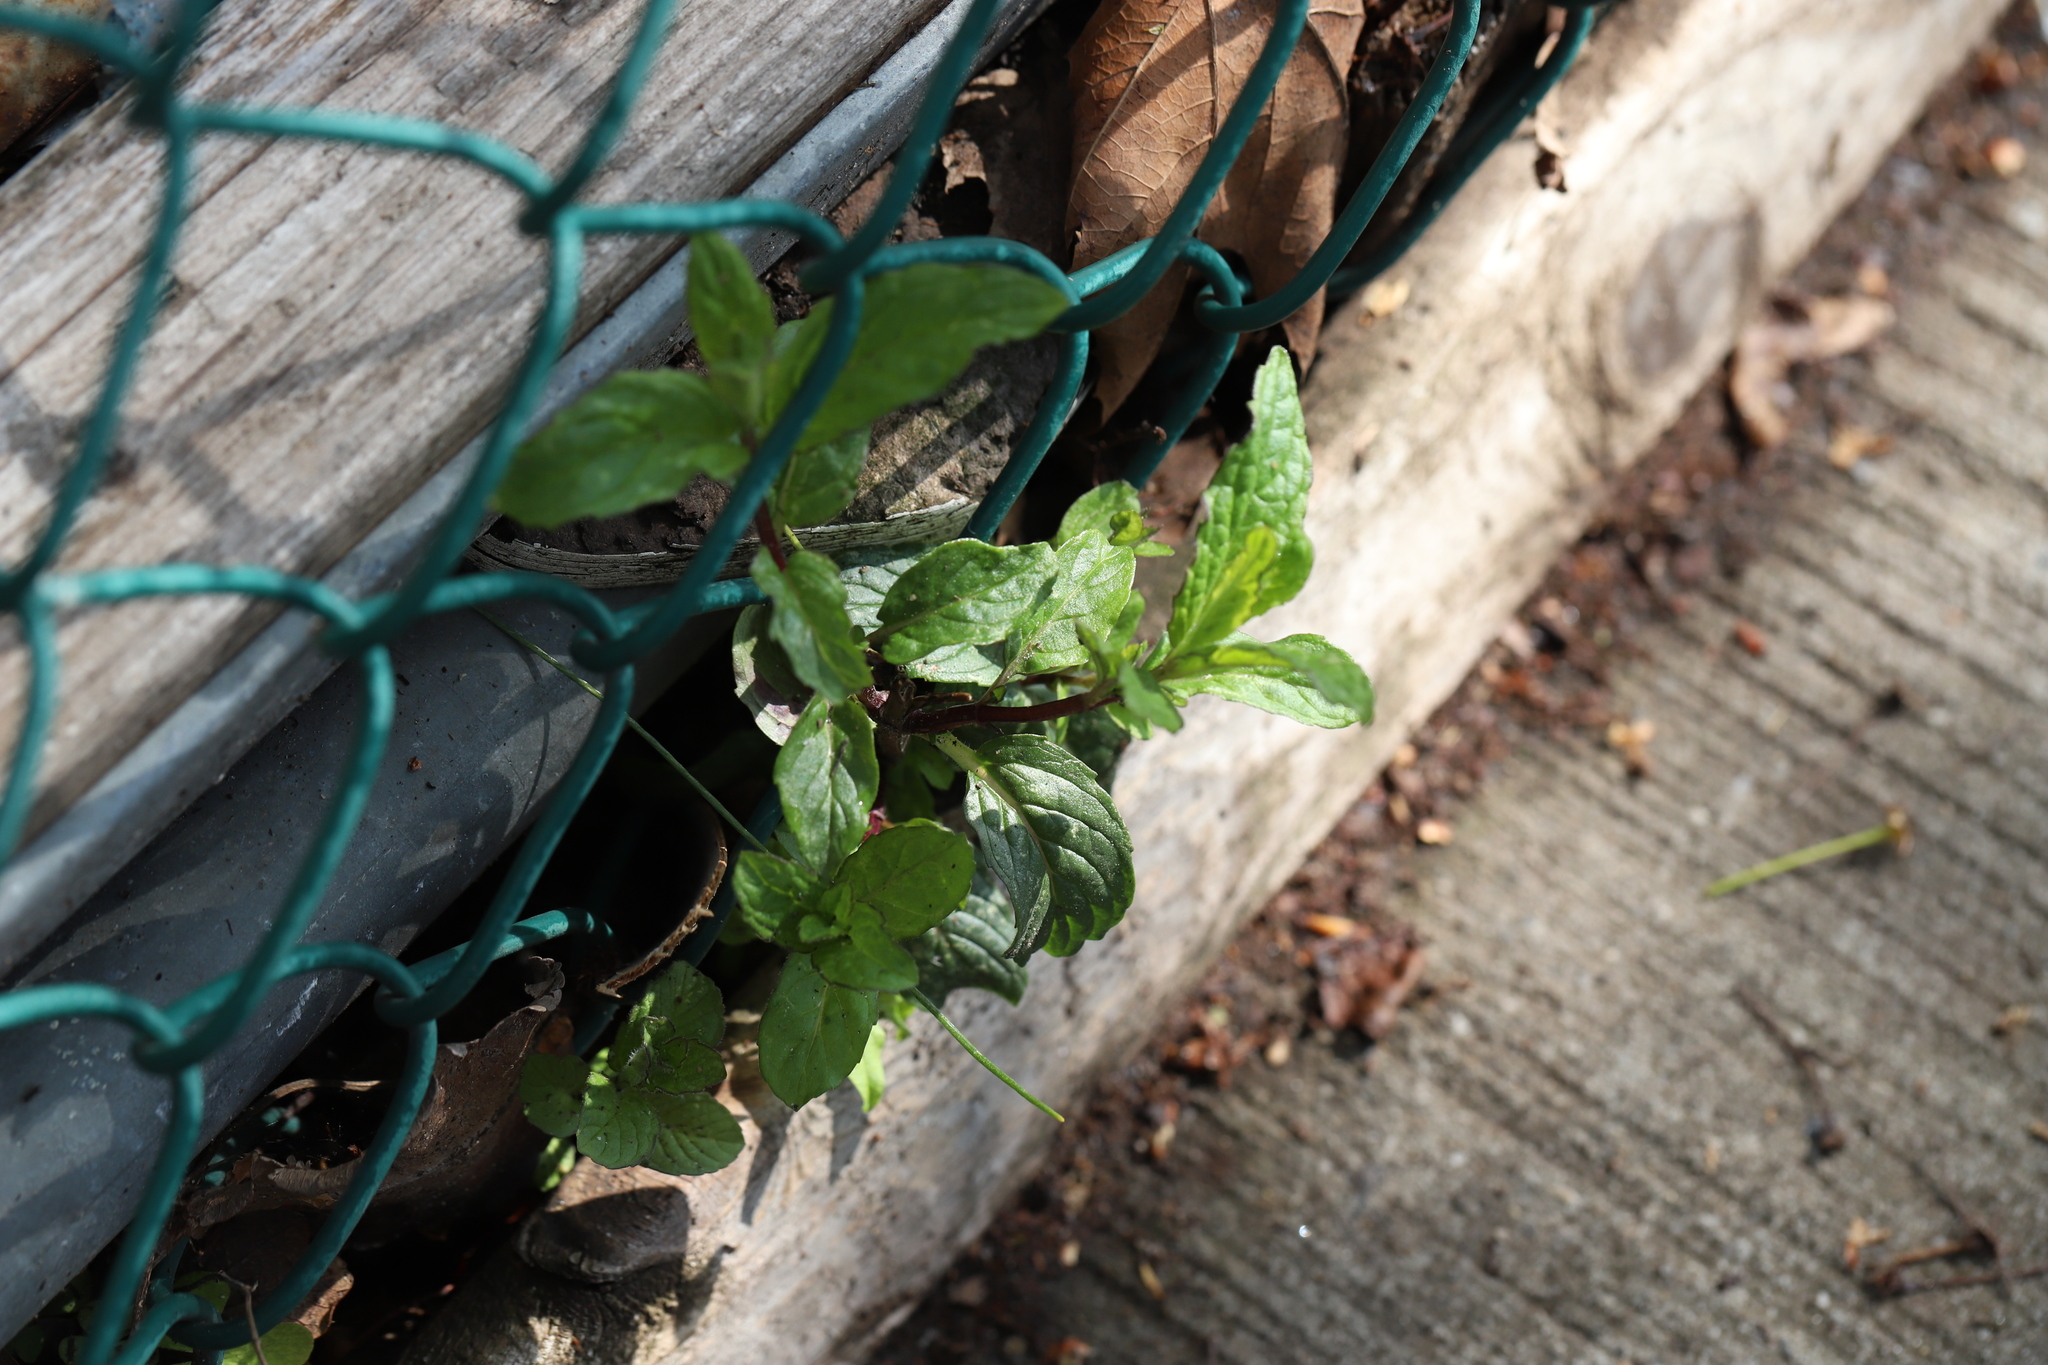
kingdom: Plantae
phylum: Tracheophyta
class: Magnoliopsida
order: Lamiales
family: Lamiaceae
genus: Mentha
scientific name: Mentha piperita
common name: Peppermint
